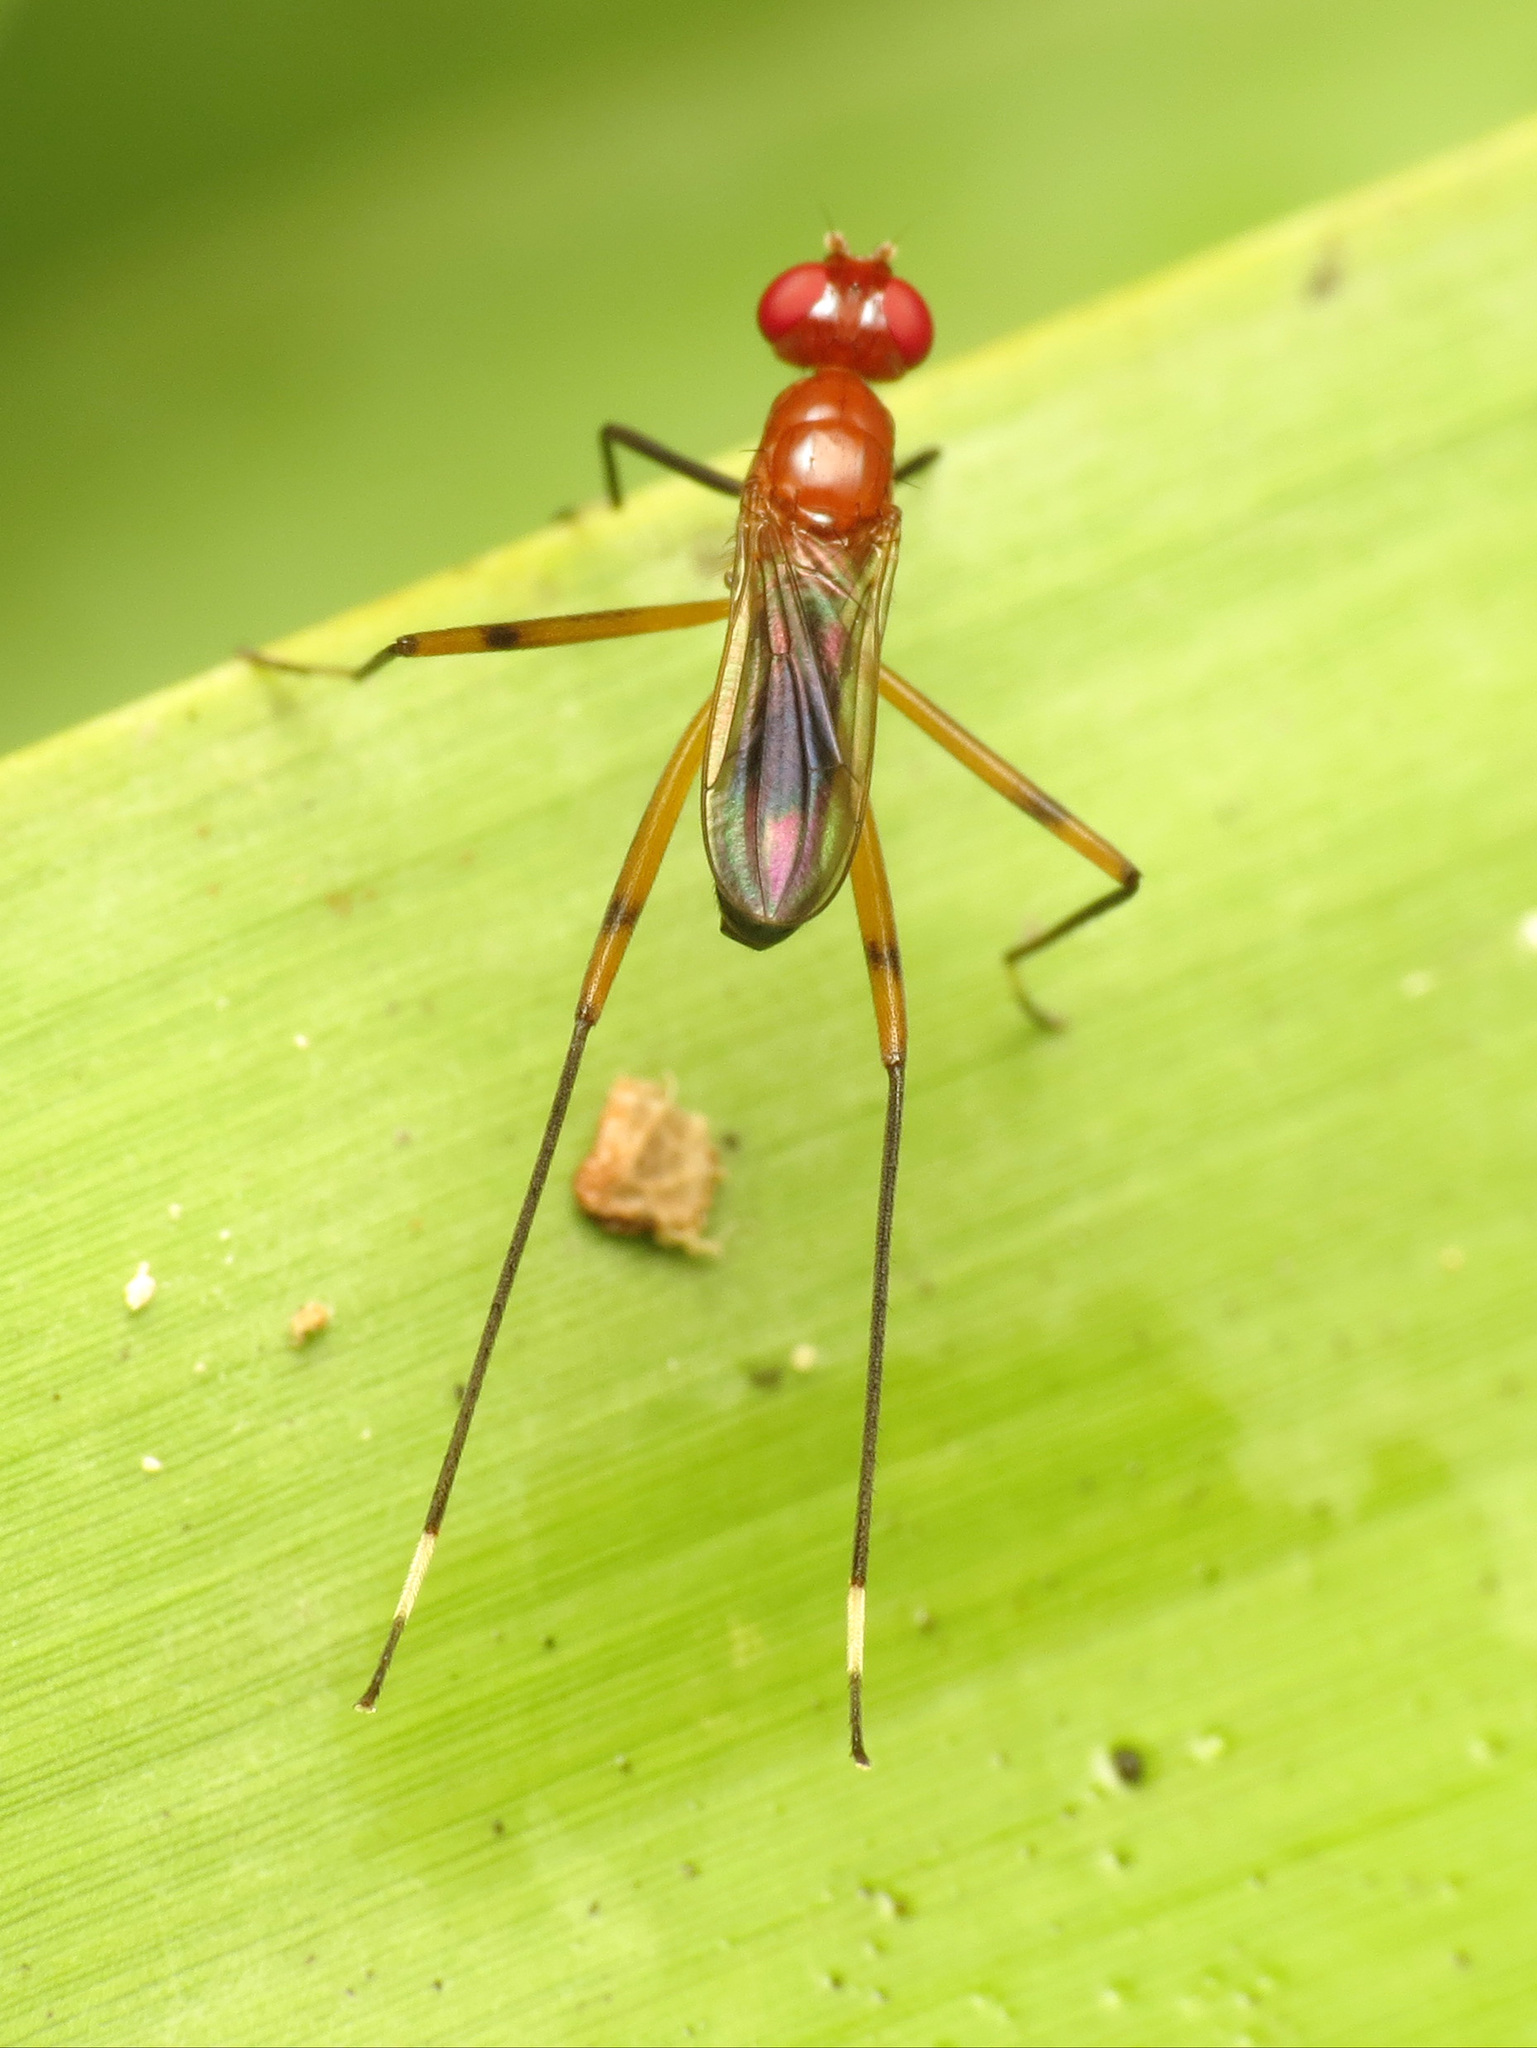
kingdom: Animalia
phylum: Arthropoda
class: Insecta
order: Diptera
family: Micropezidae
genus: Grallipeza
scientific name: Grallipeza nebulosa
